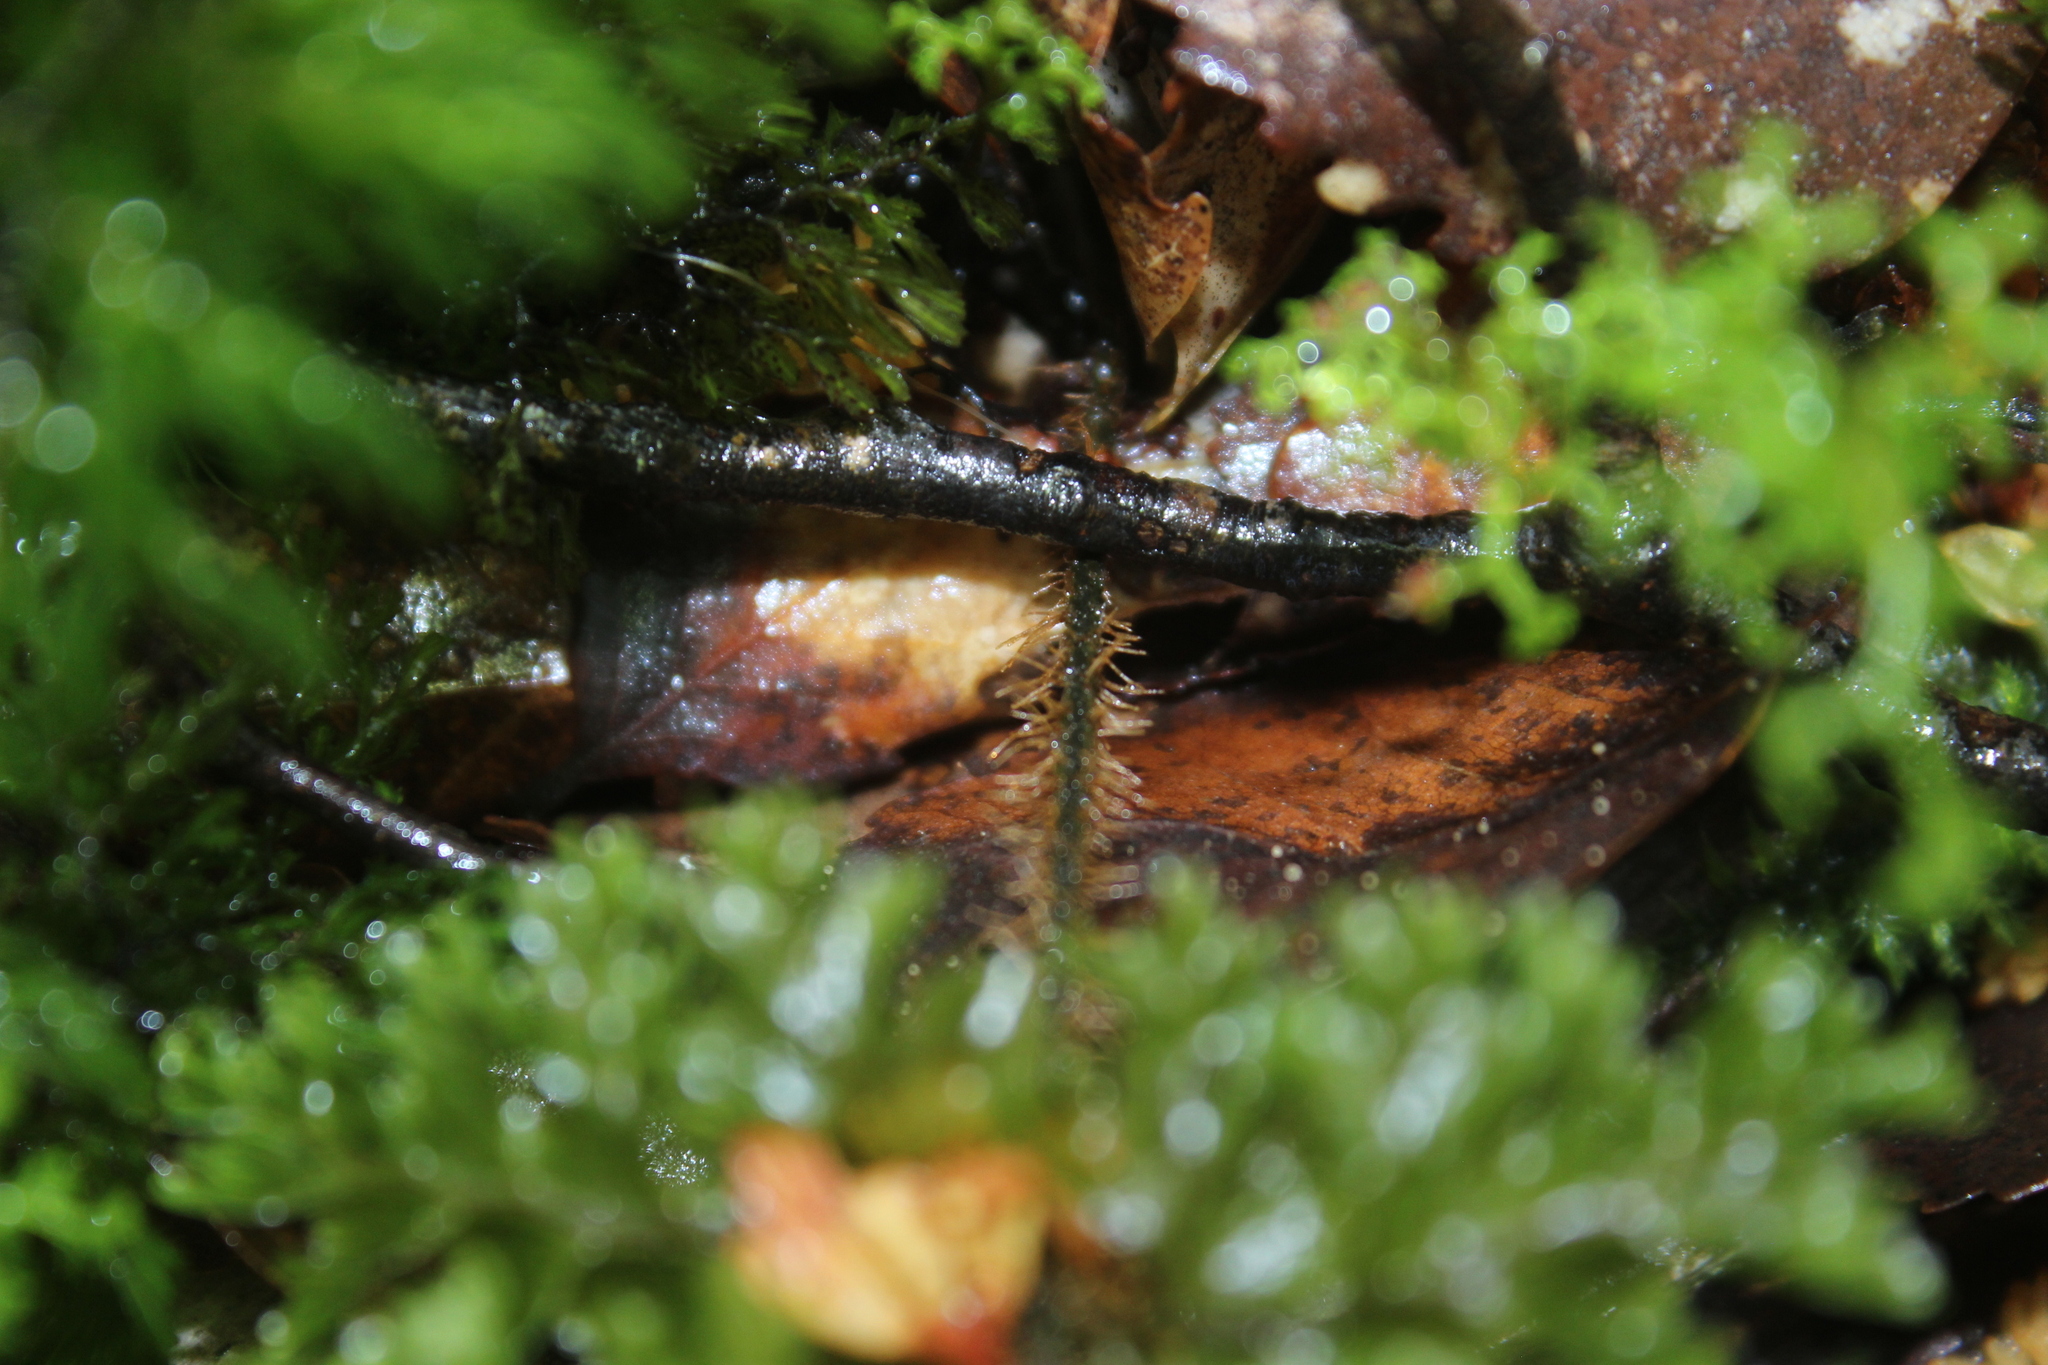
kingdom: Plantae
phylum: Tracheophyta
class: Polypodiopsida
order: Hymenophyllales
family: Hymenophyllaceae
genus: Hymenophyllum
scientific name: Hymenophyllum scabrum
